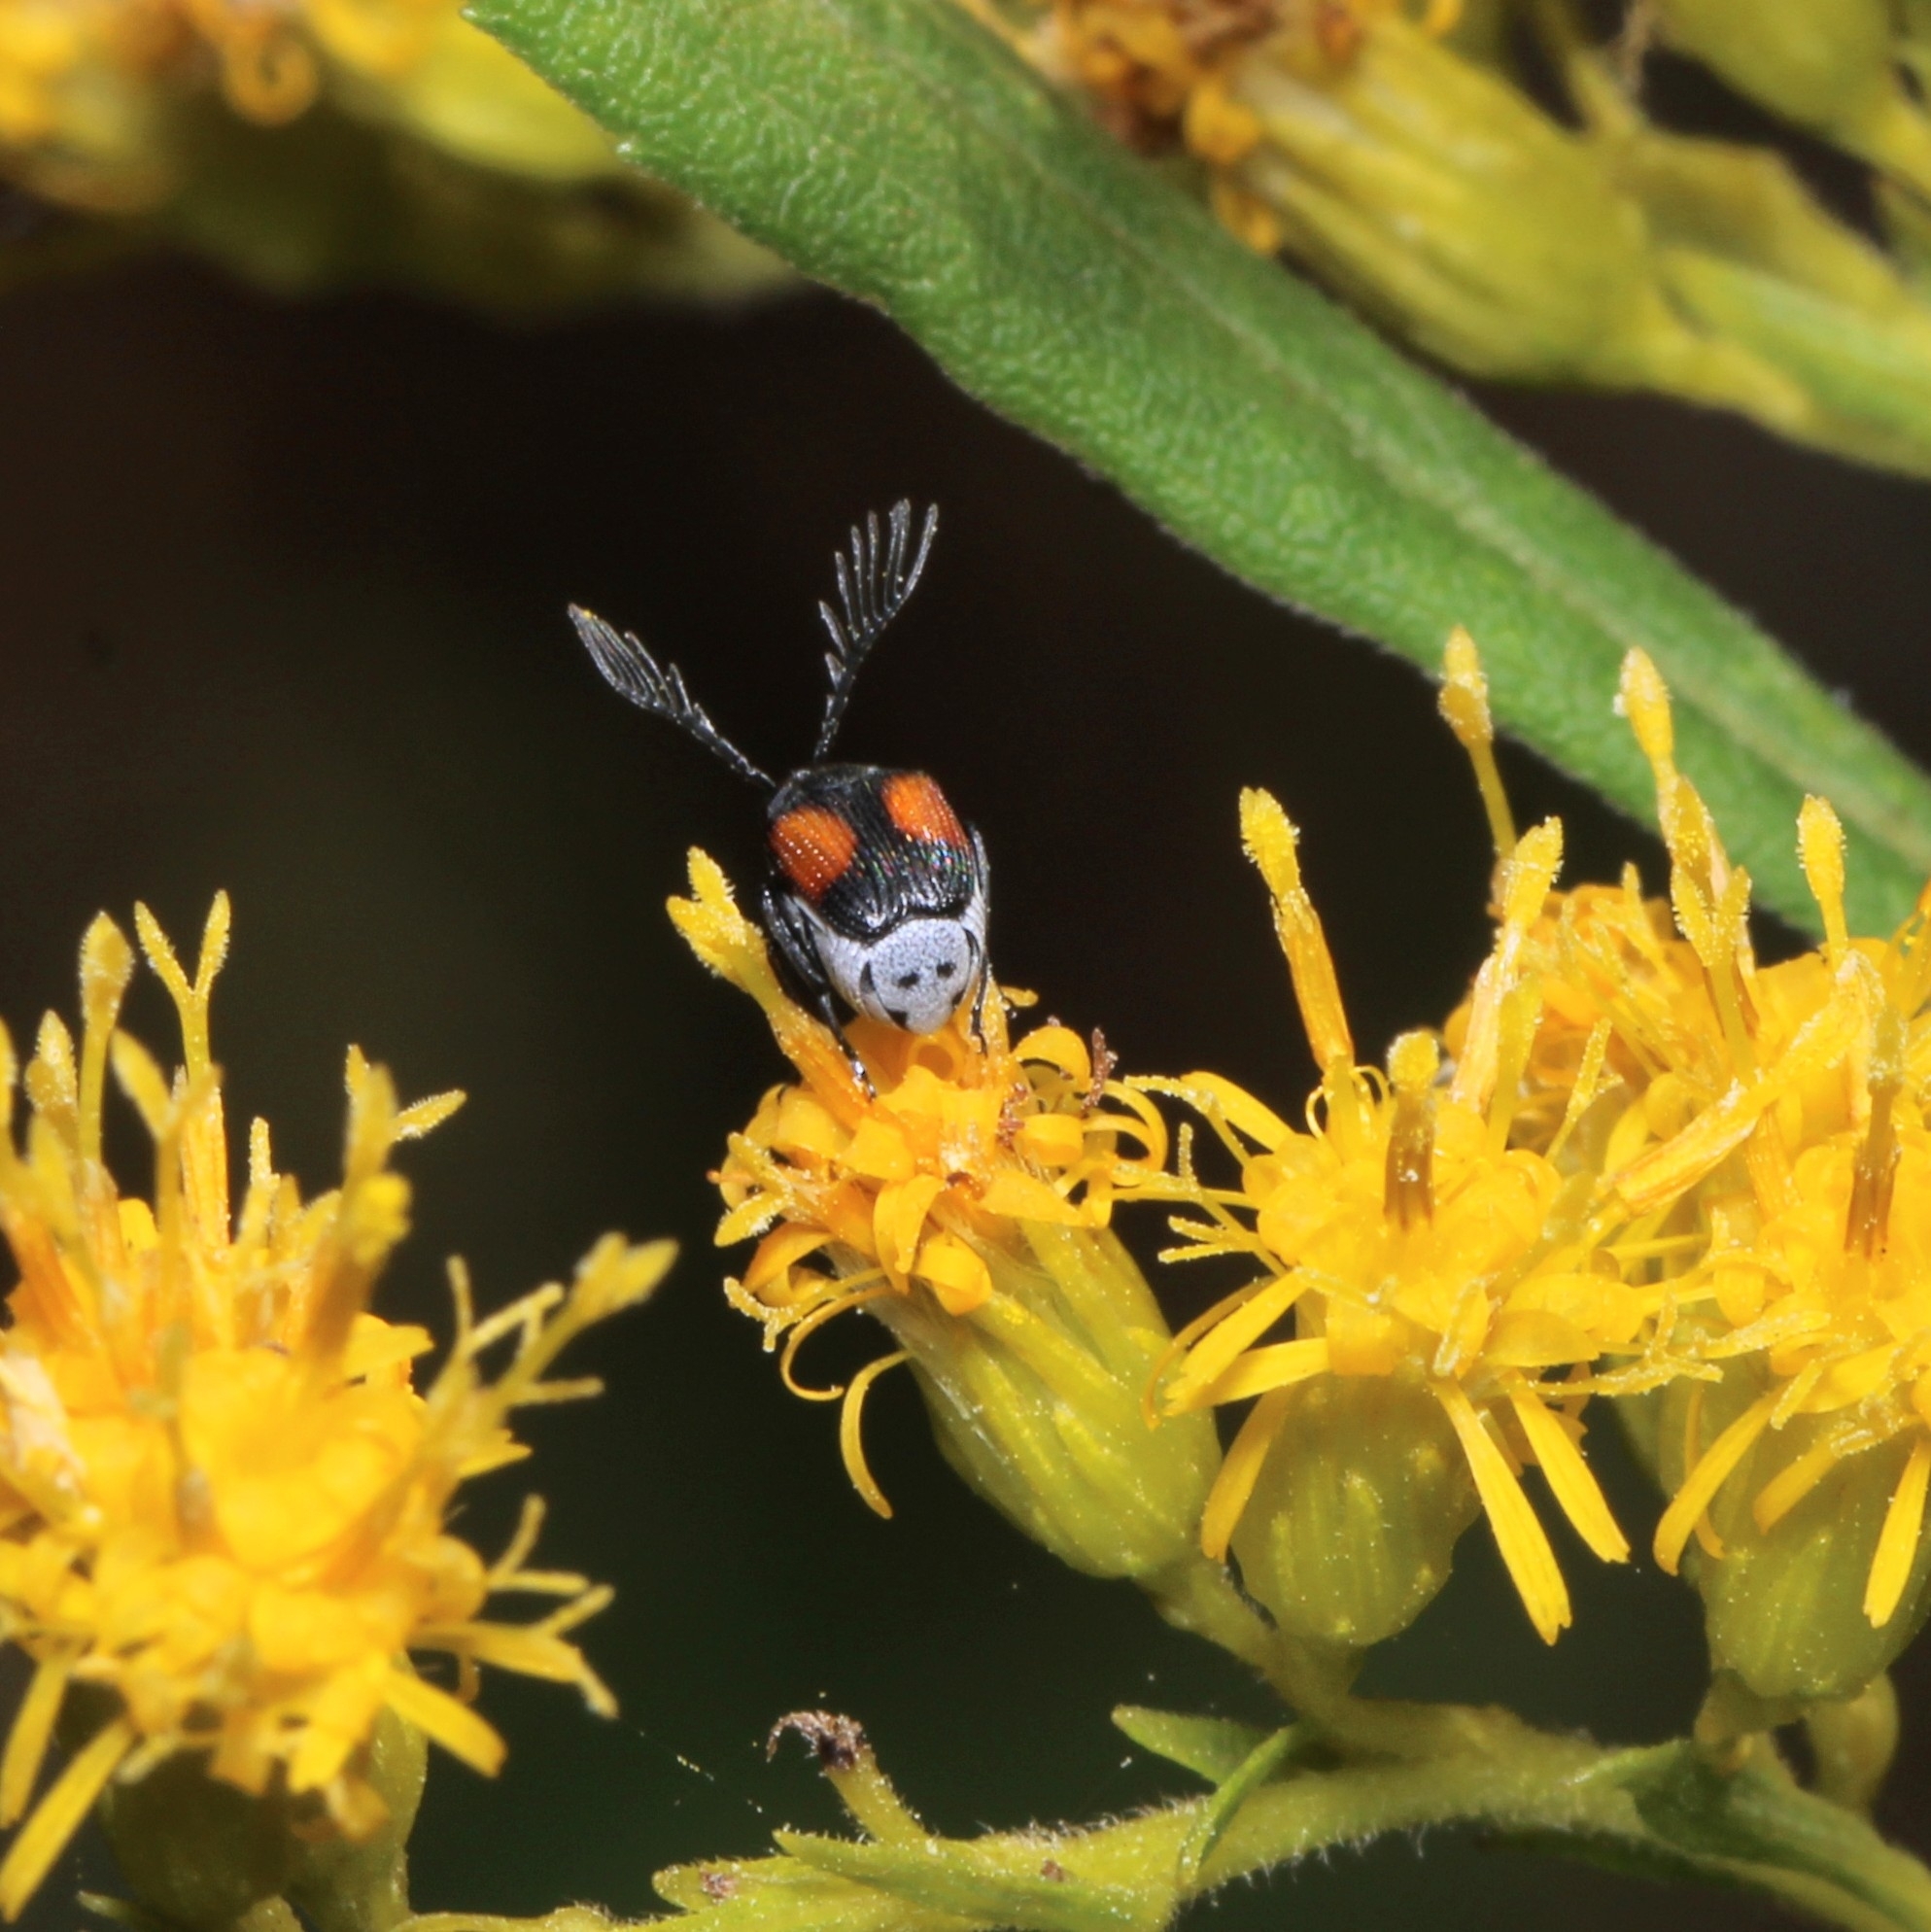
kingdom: Animalia
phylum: Arthropoda
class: Insecta
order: Coleoptera
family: Chrysomelidae
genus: Megacerus
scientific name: Megacerus discoidus
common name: Red megacerus
